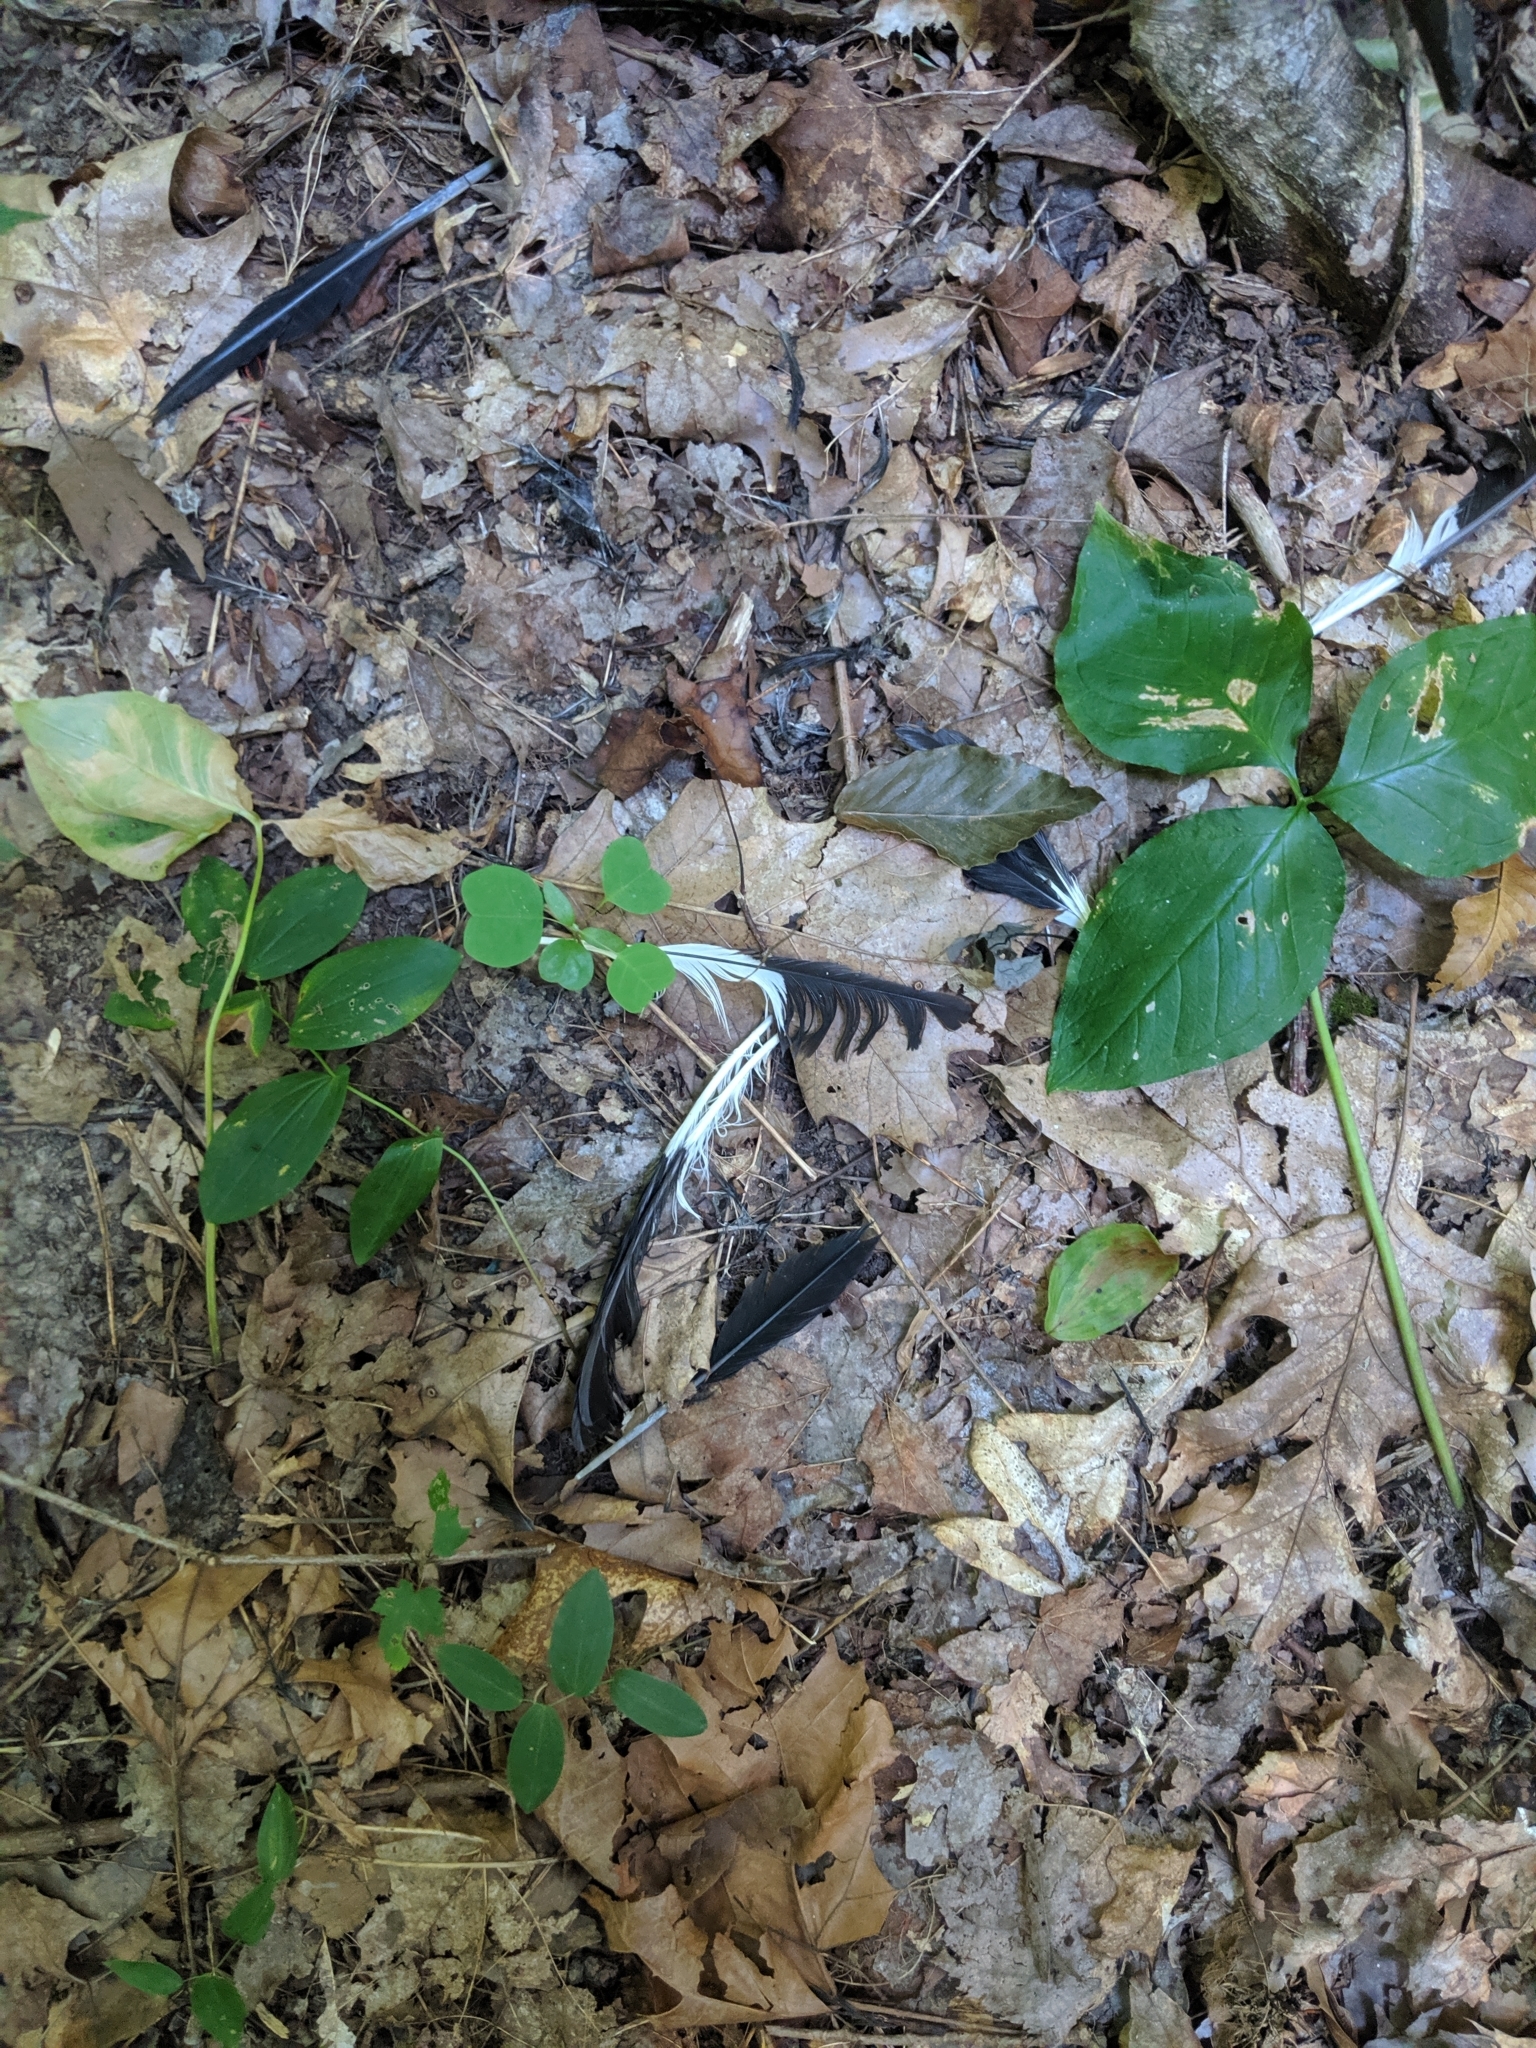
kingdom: Animalia
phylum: Chordata
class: Aves
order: Piciformes
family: Picidae
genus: Dryocopus
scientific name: Dryocopus pileatus
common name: Pileated woodpecker
